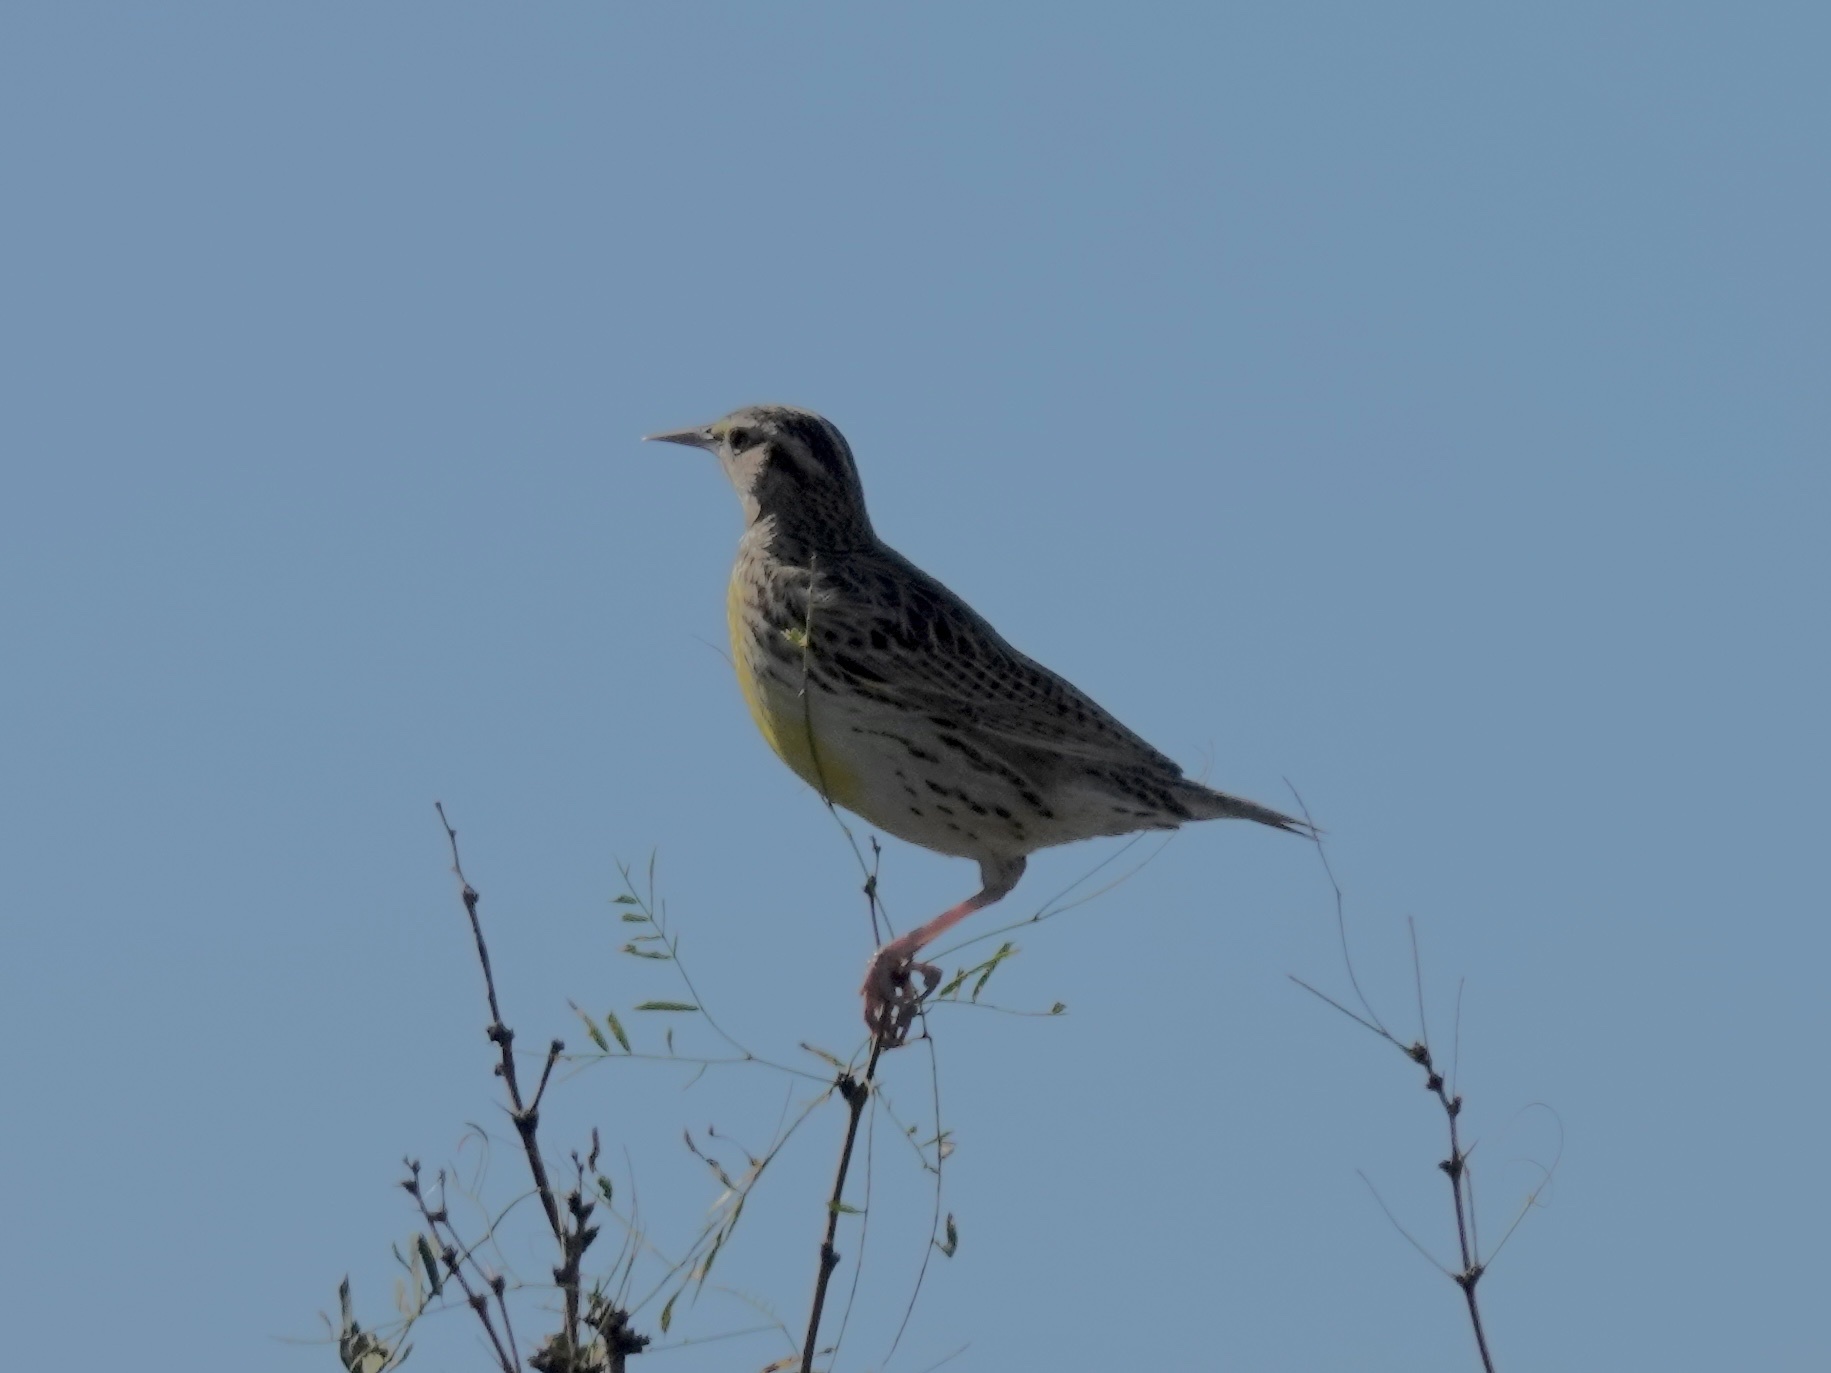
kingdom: Animalia
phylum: Chordata
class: Aves
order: Passeriformes
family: Icteridae
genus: Sturnella
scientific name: Sturnella neglecta
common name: Western meadowlark
